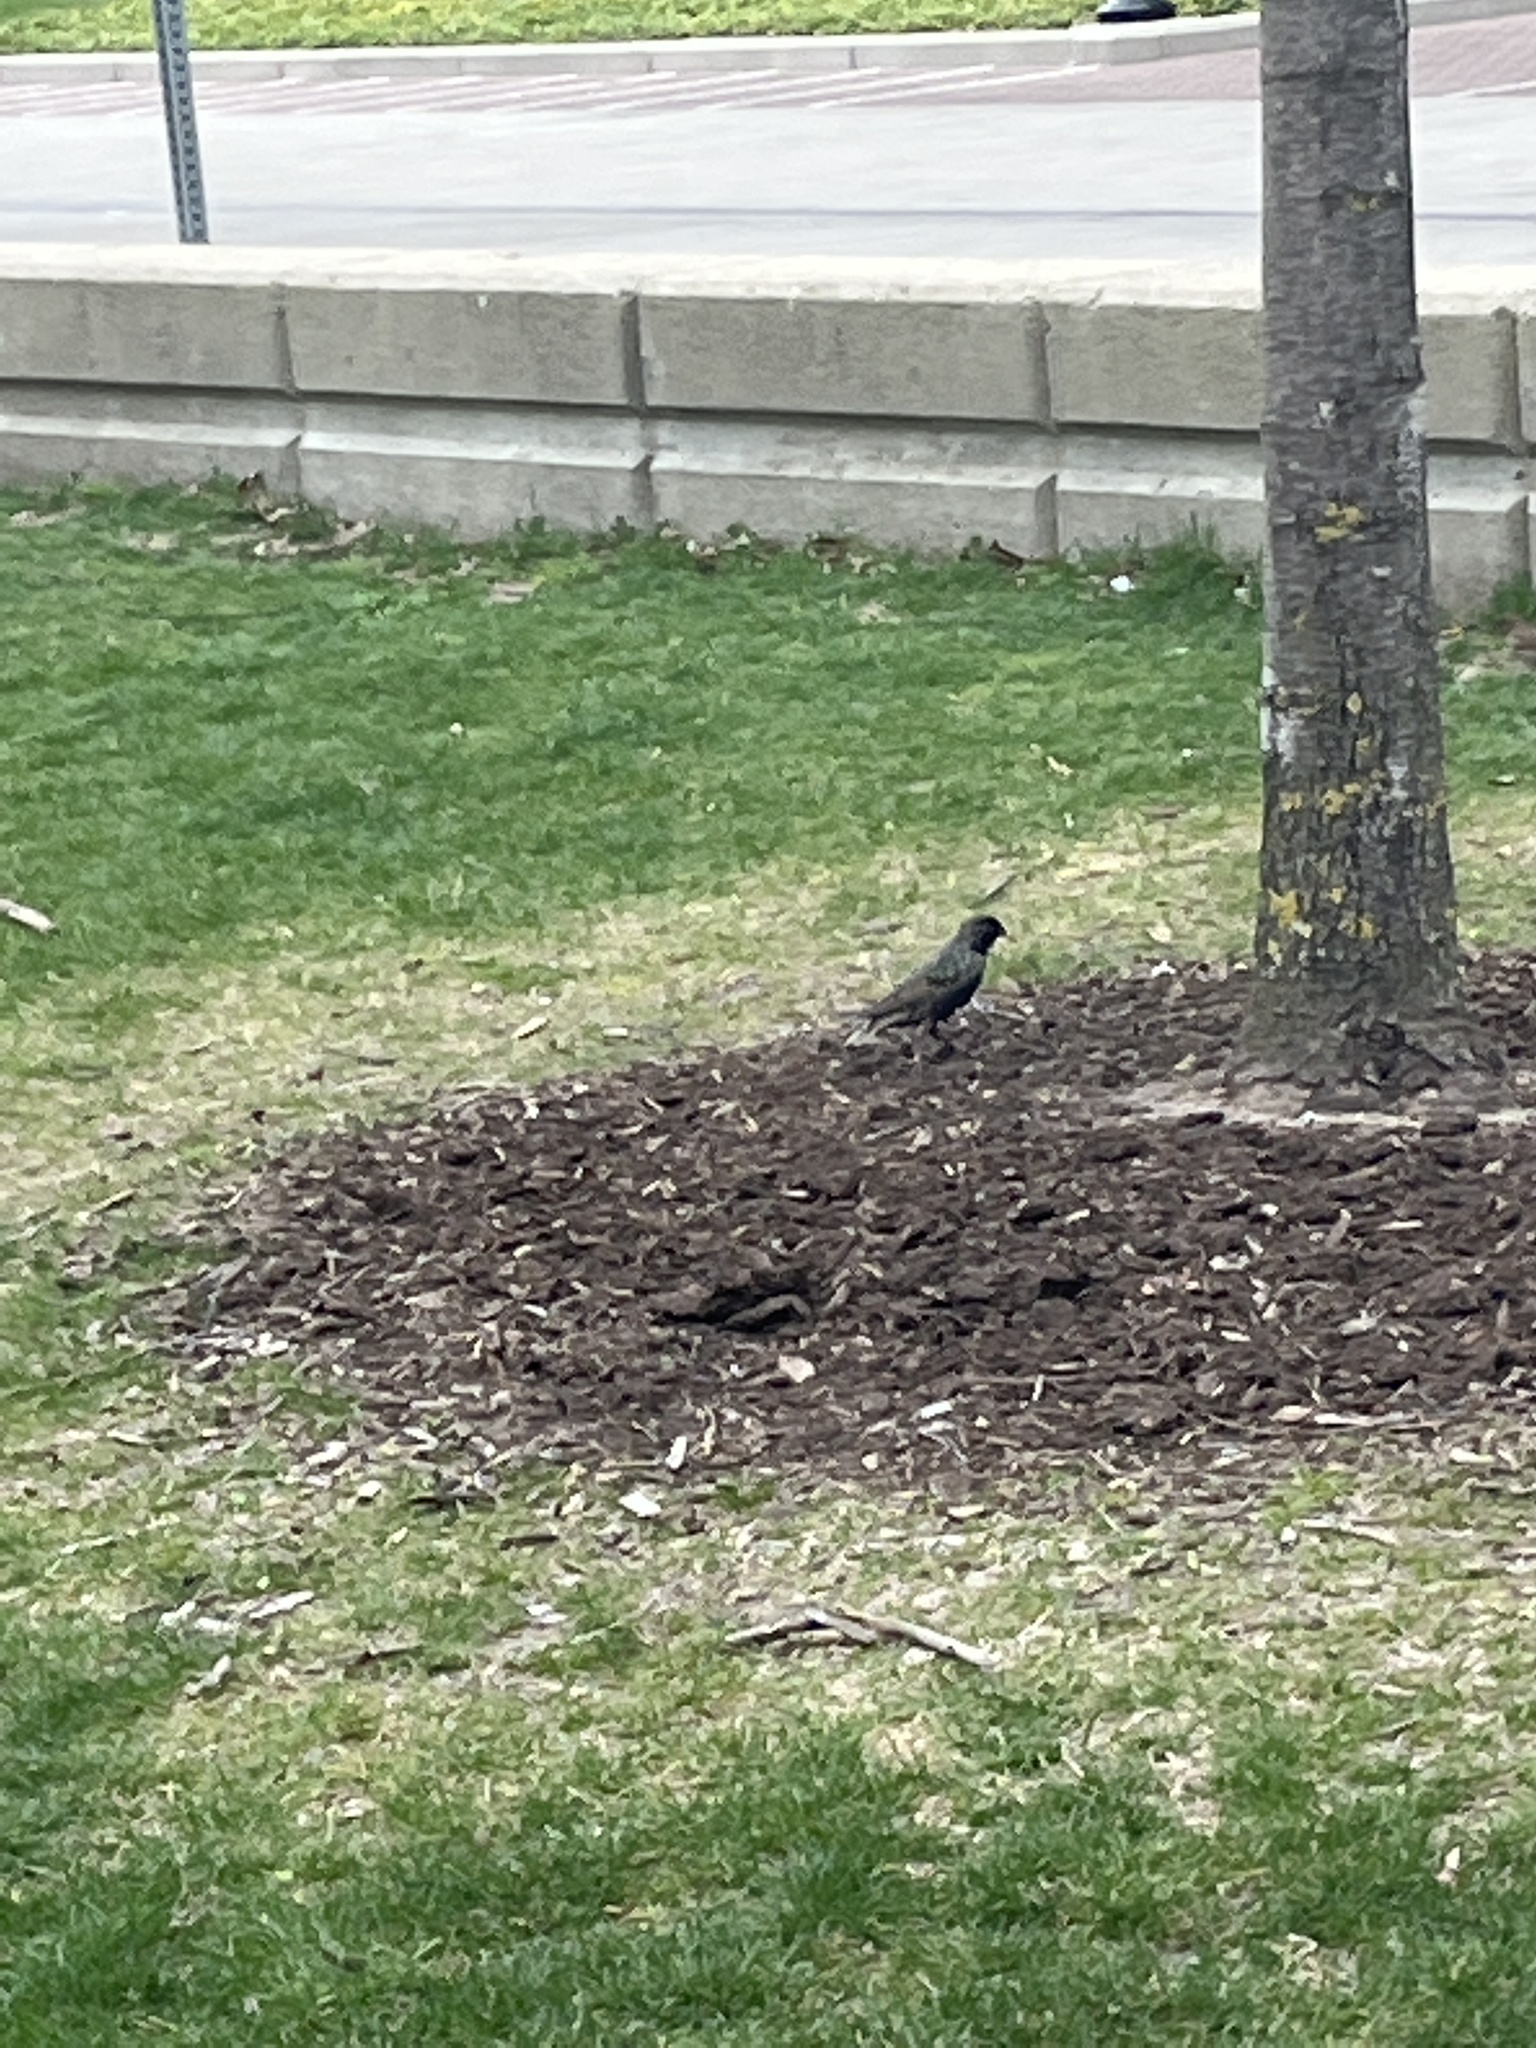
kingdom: Animalia
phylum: Chordata
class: Aves
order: Passeriformes
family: Sturnidae
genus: Sturnus
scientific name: Sturnus vulgaris
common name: Common starling
